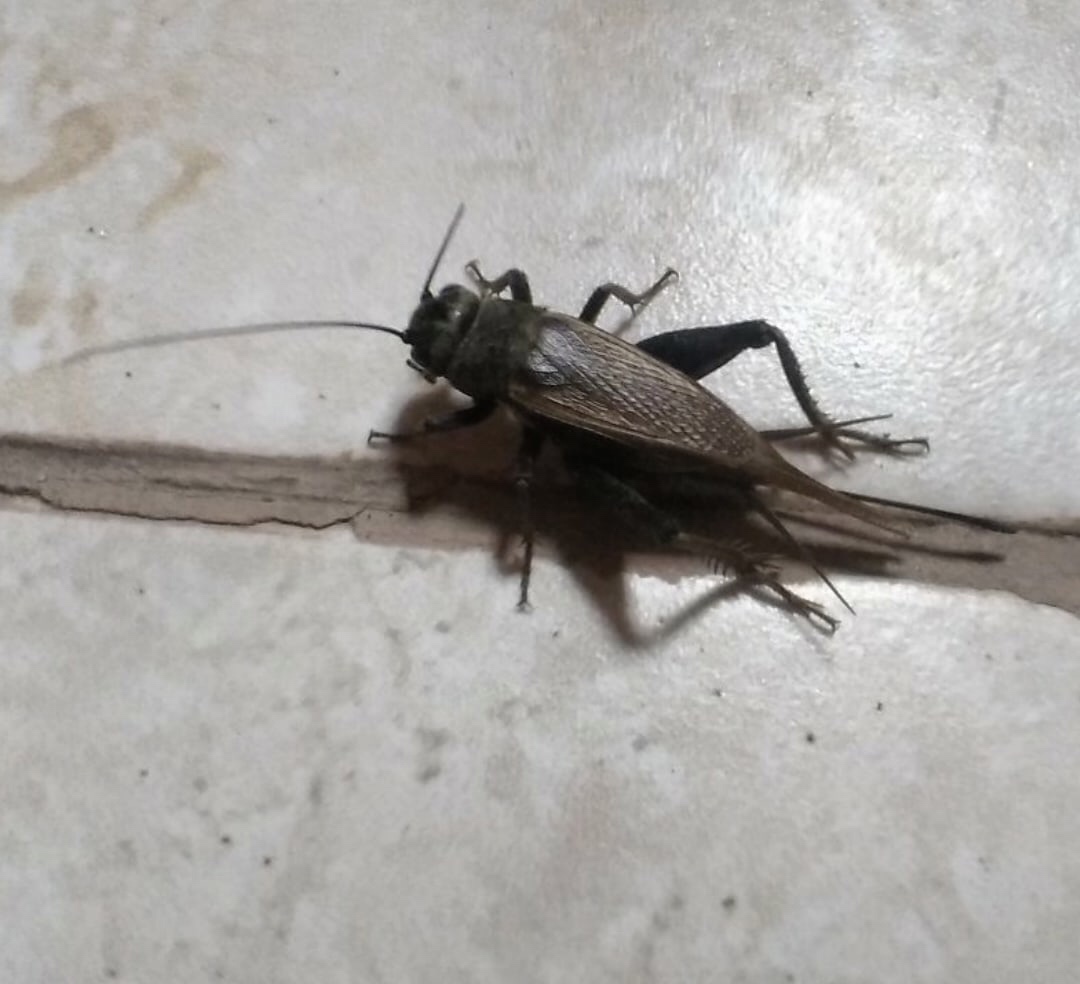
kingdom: Animalia
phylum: Arthropoda
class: Insecta
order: Orthoptera
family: Gryllidae
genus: Melanogryllus
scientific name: Melanogryllus desertus
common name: Desert cricket
